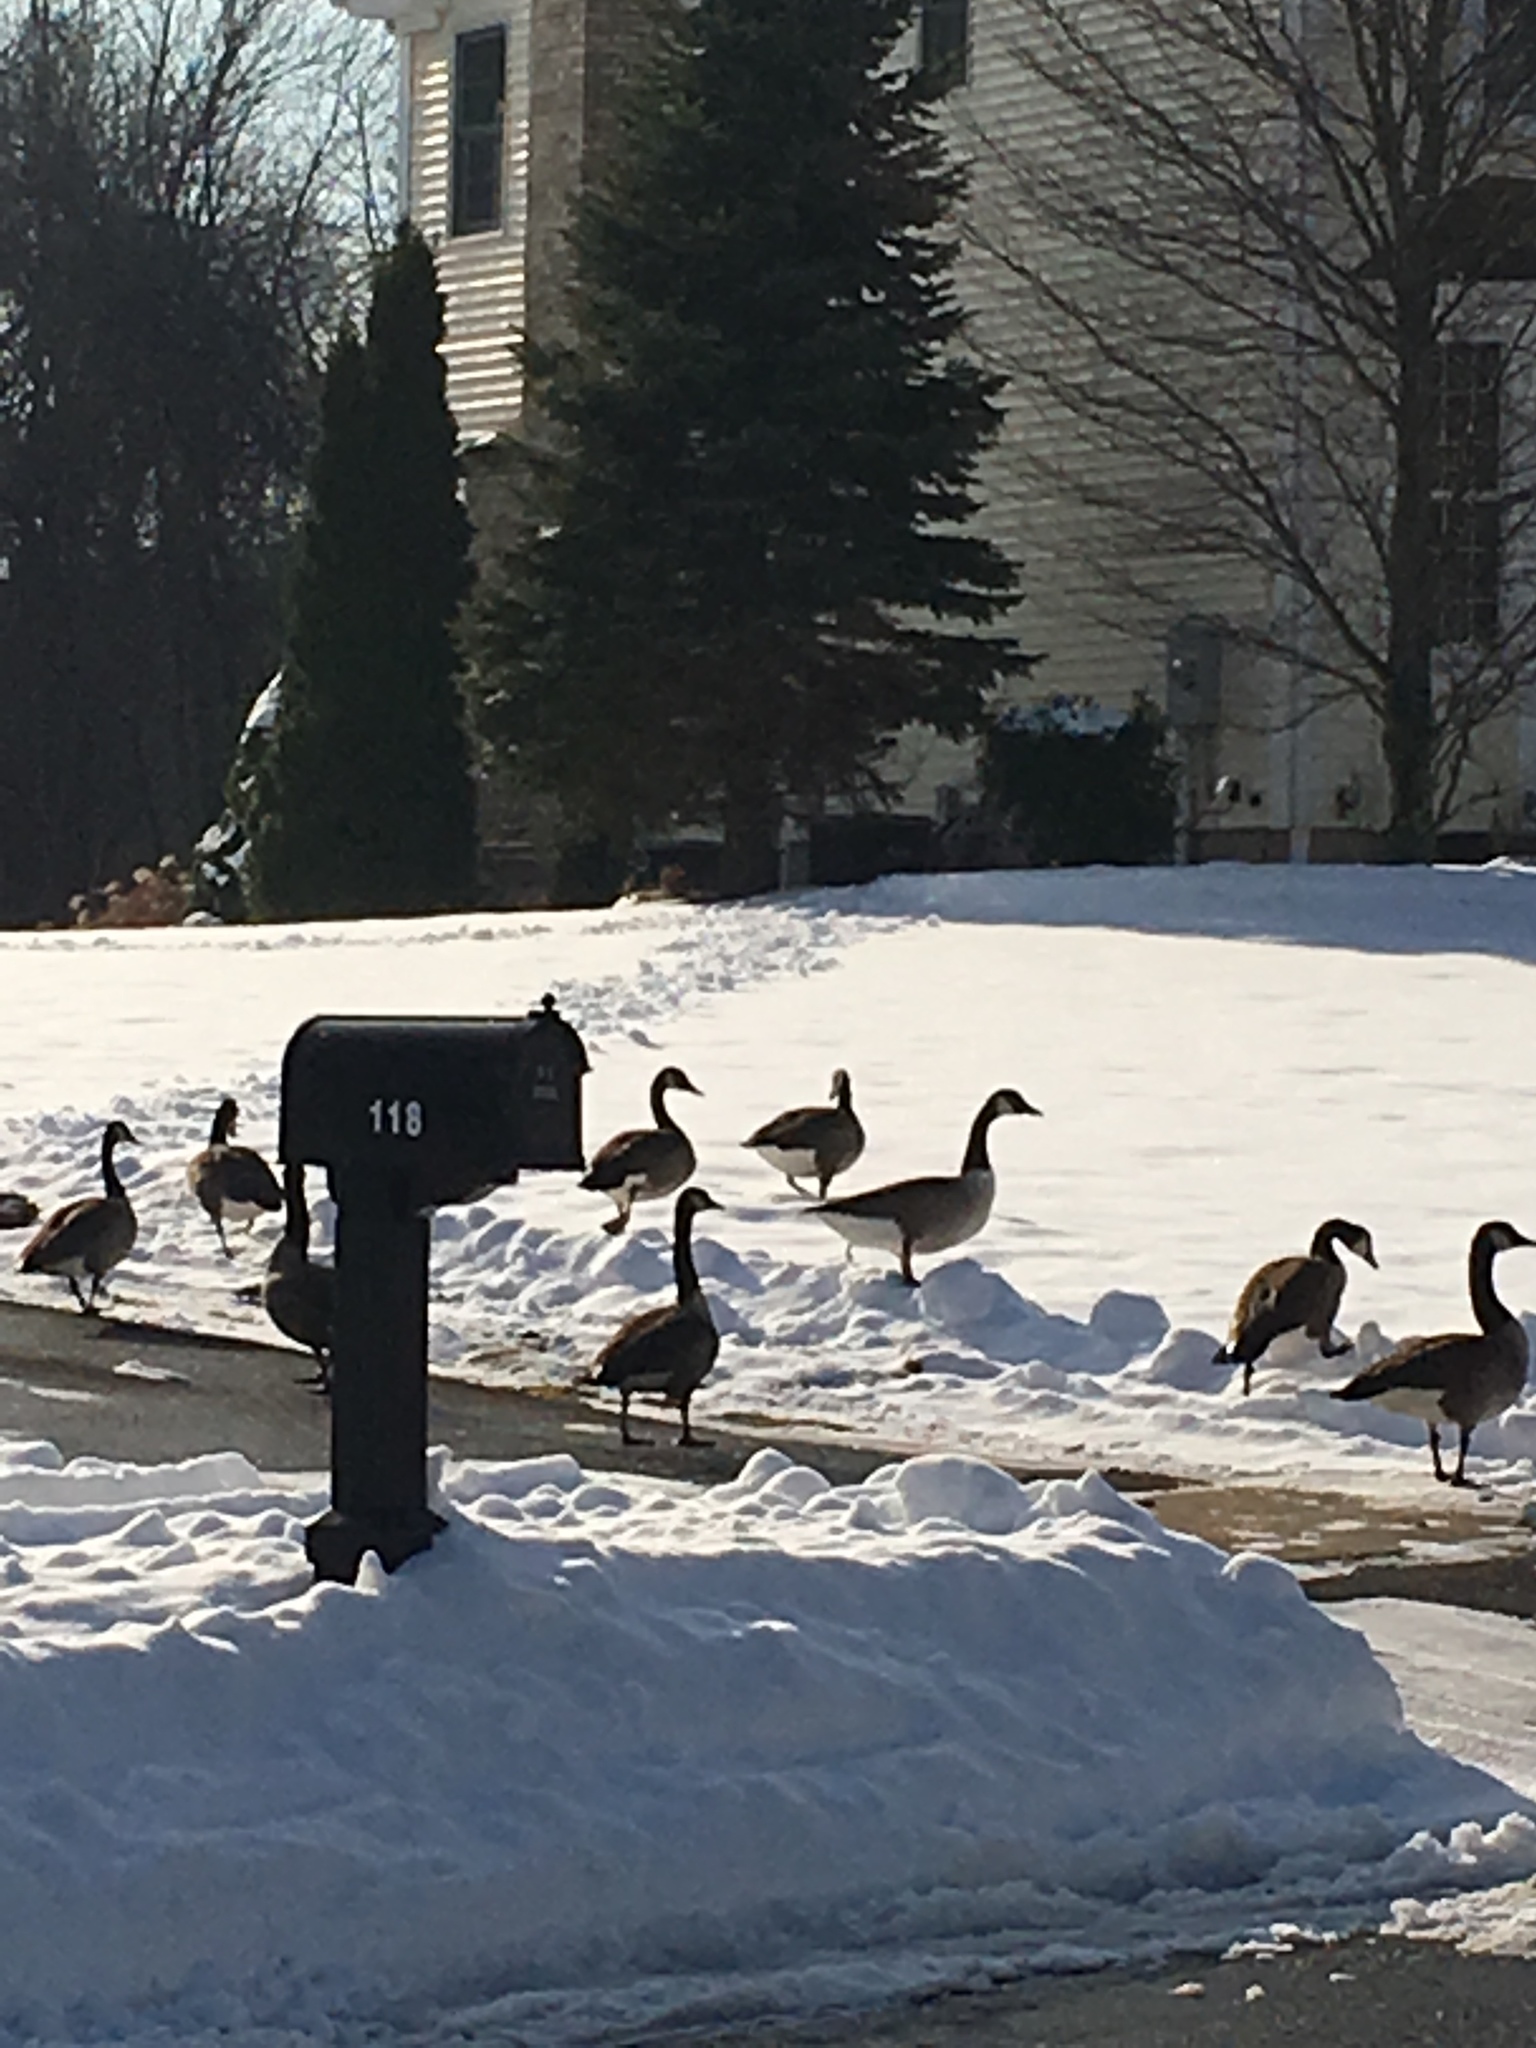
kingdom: Animalia
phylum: Chordata
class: Aves
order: Anseriformes
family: Anatidae
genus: Branta
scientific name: Branta canadensis
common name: Canada goose
